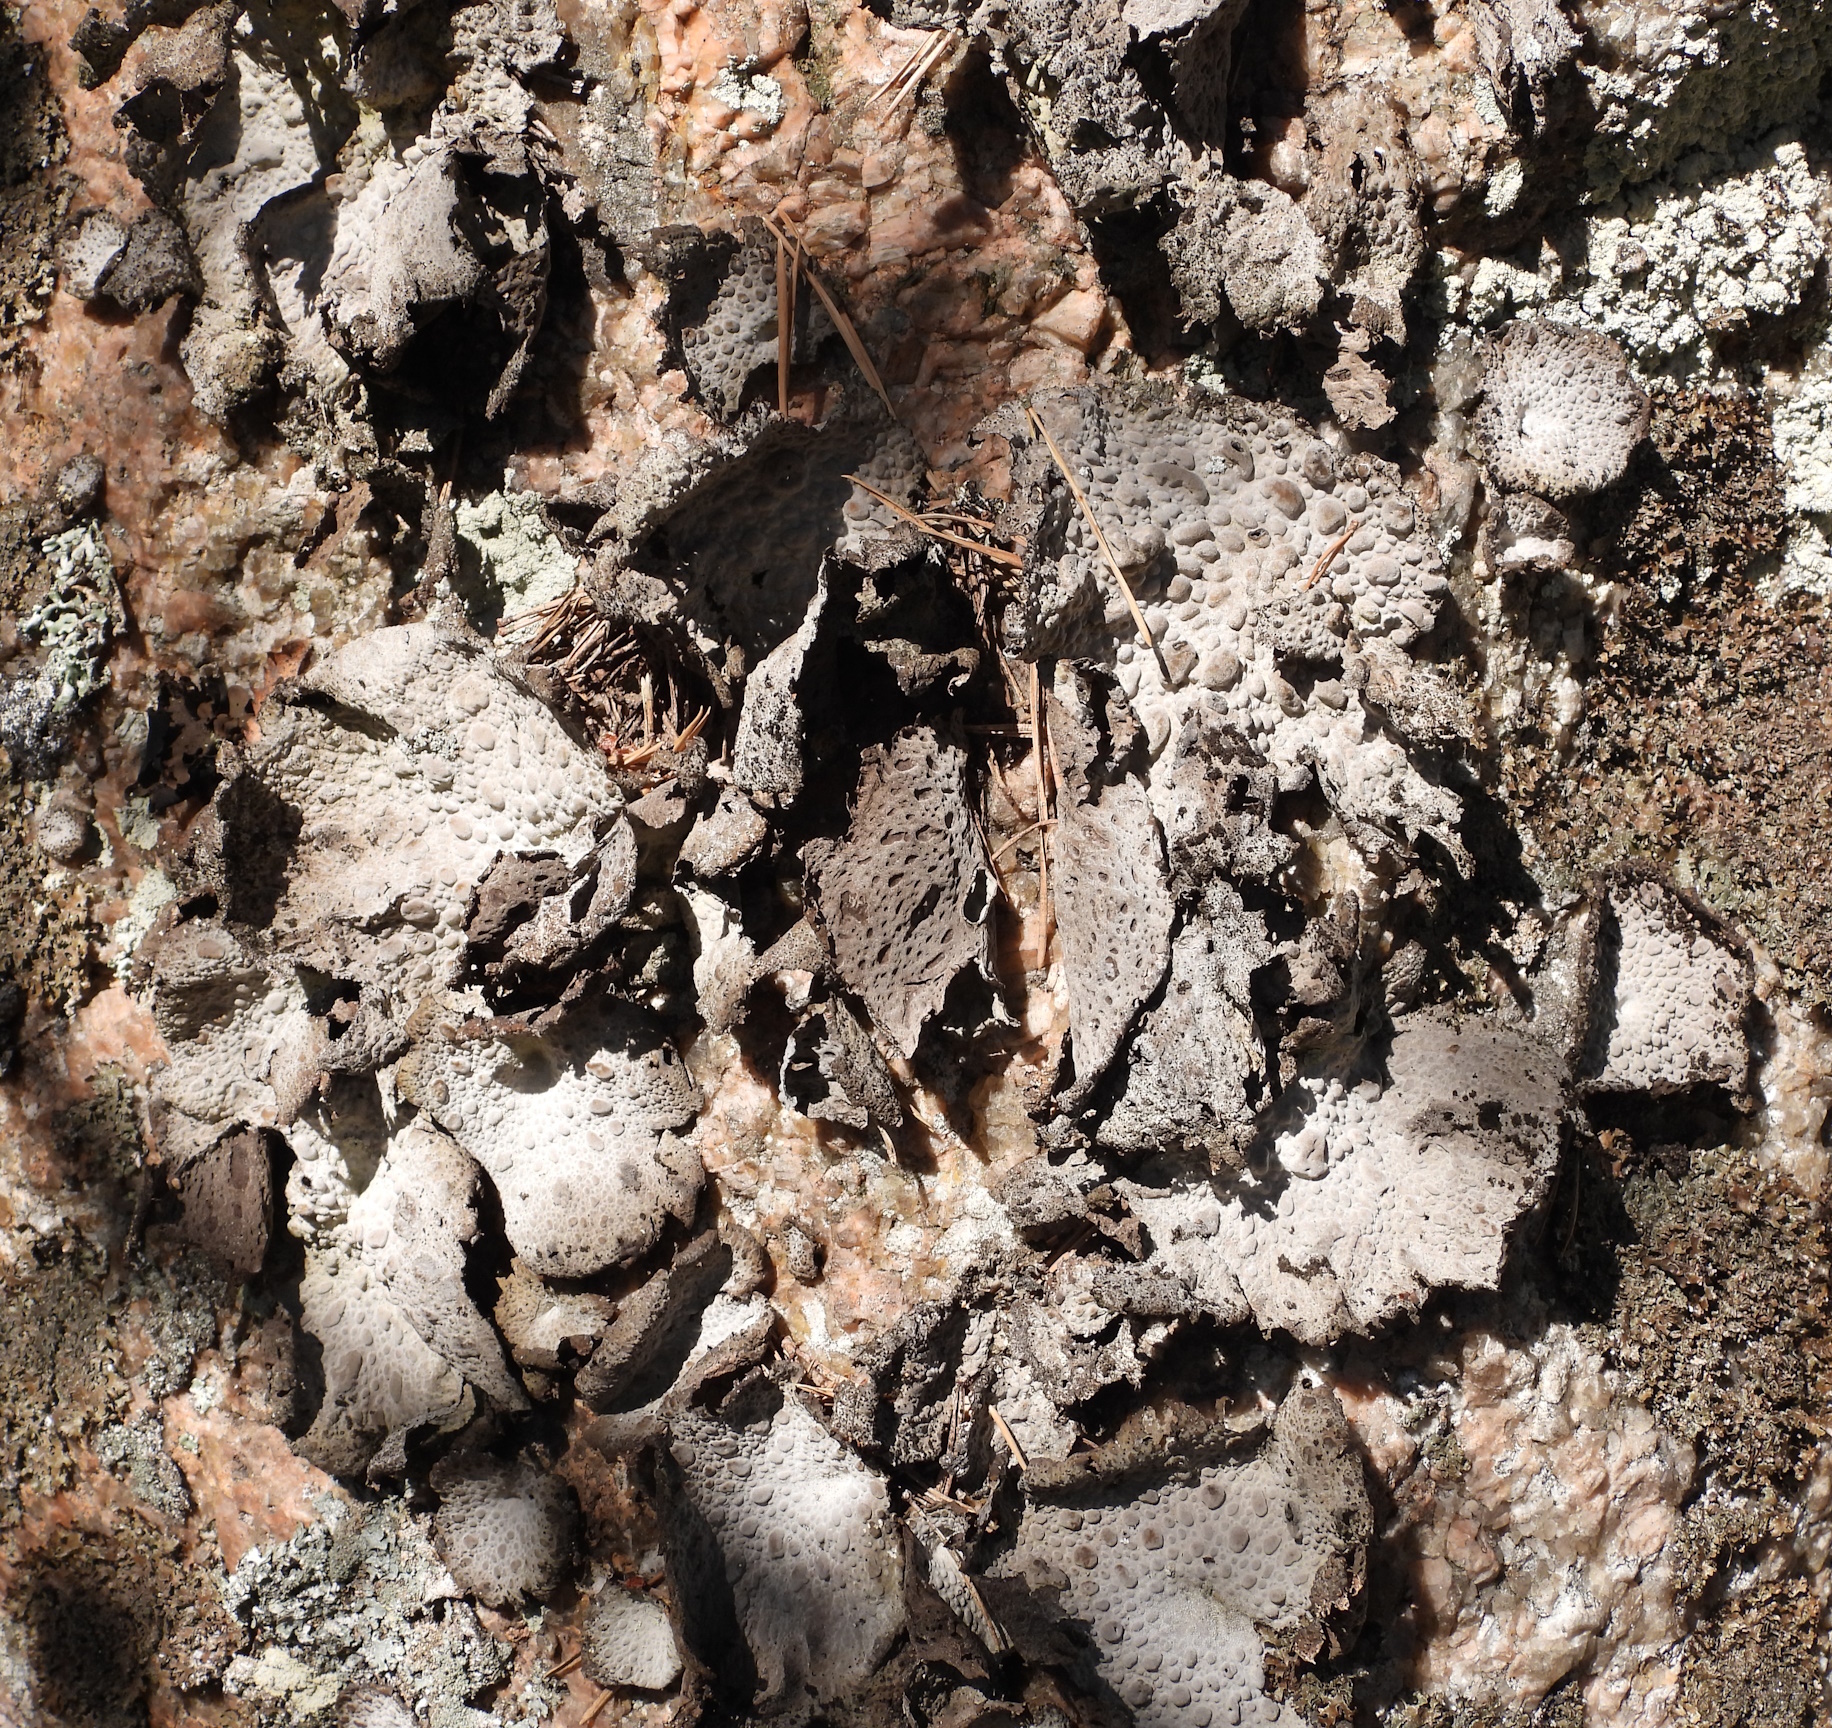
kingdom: Fungi
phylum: Ascomycota
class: Lecanoromycetes
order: Umbilicariales
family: Umbilicariaceae
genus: Lasallia
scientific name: Lasallia pustulata
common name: Blistered toadskin lichen
